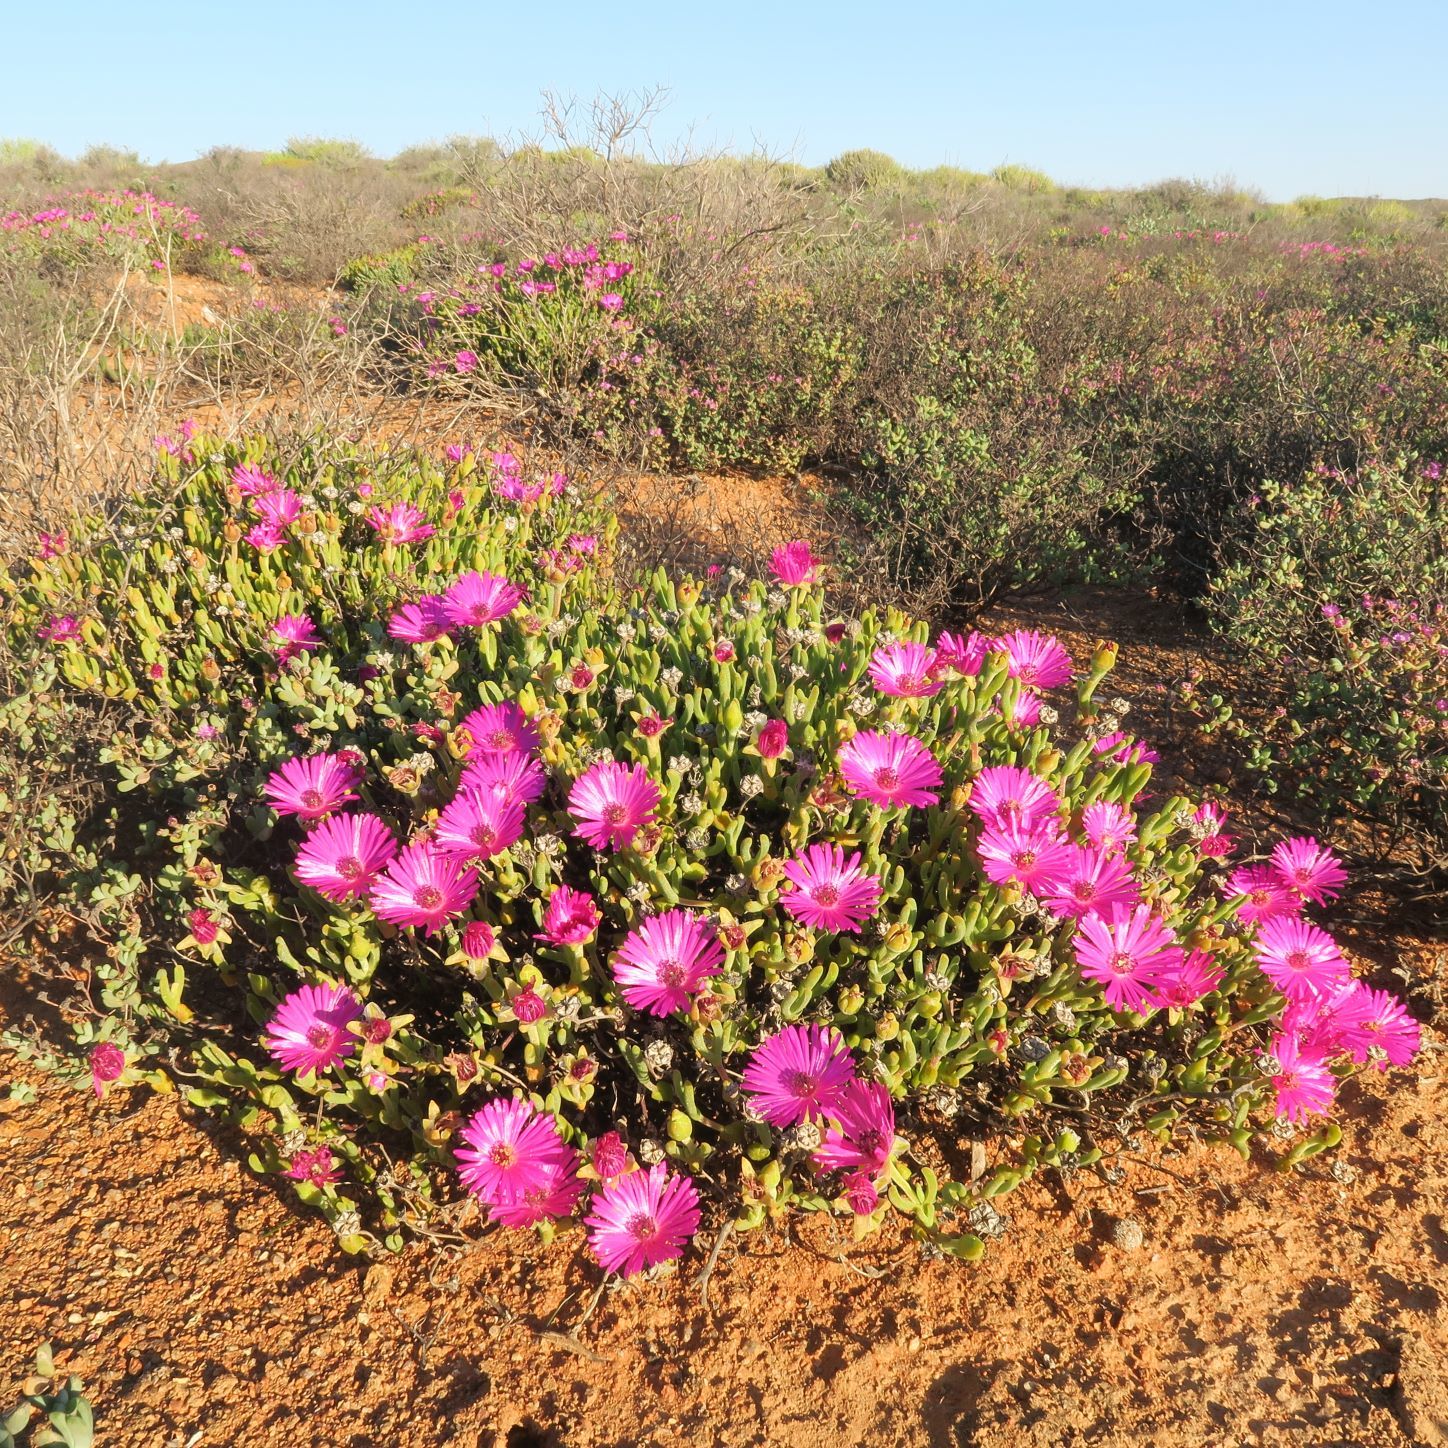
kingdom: Plantae
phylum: Tracheophyta
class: Magnoliopsida
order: Caryophyllales
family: Aizoaceae
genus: Meyerophytum
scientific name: Meyerophytum meyeri
